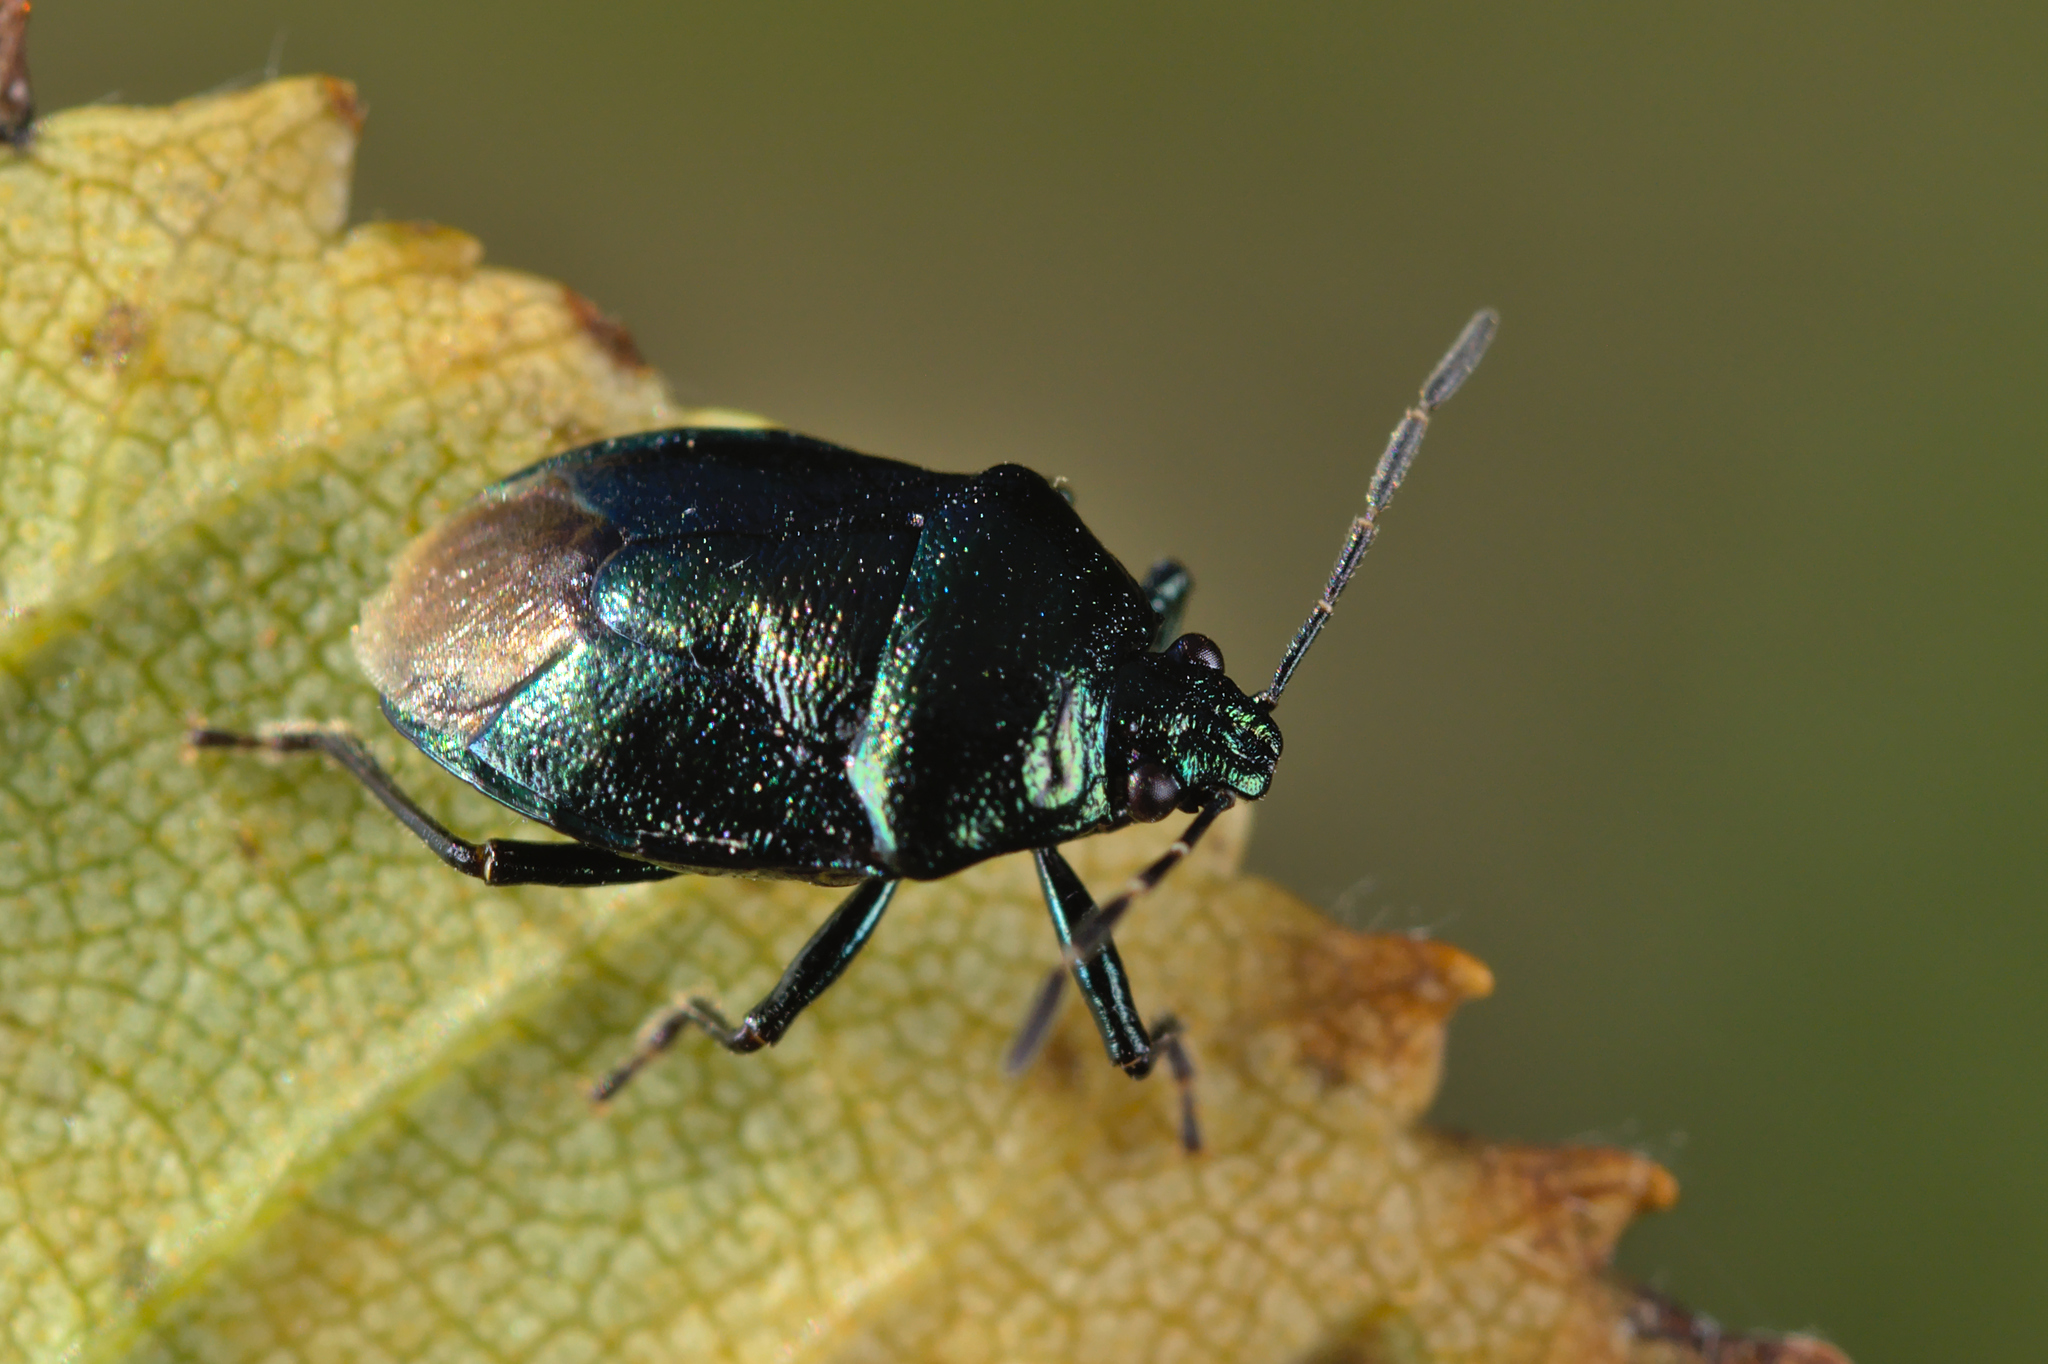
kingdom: Animalia
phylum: Arthropoda
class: Insecta
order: Hemiptera
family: Pentatomidae
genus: Zicrona
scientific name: Zicrona caerulea
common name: Blue shieldbug
